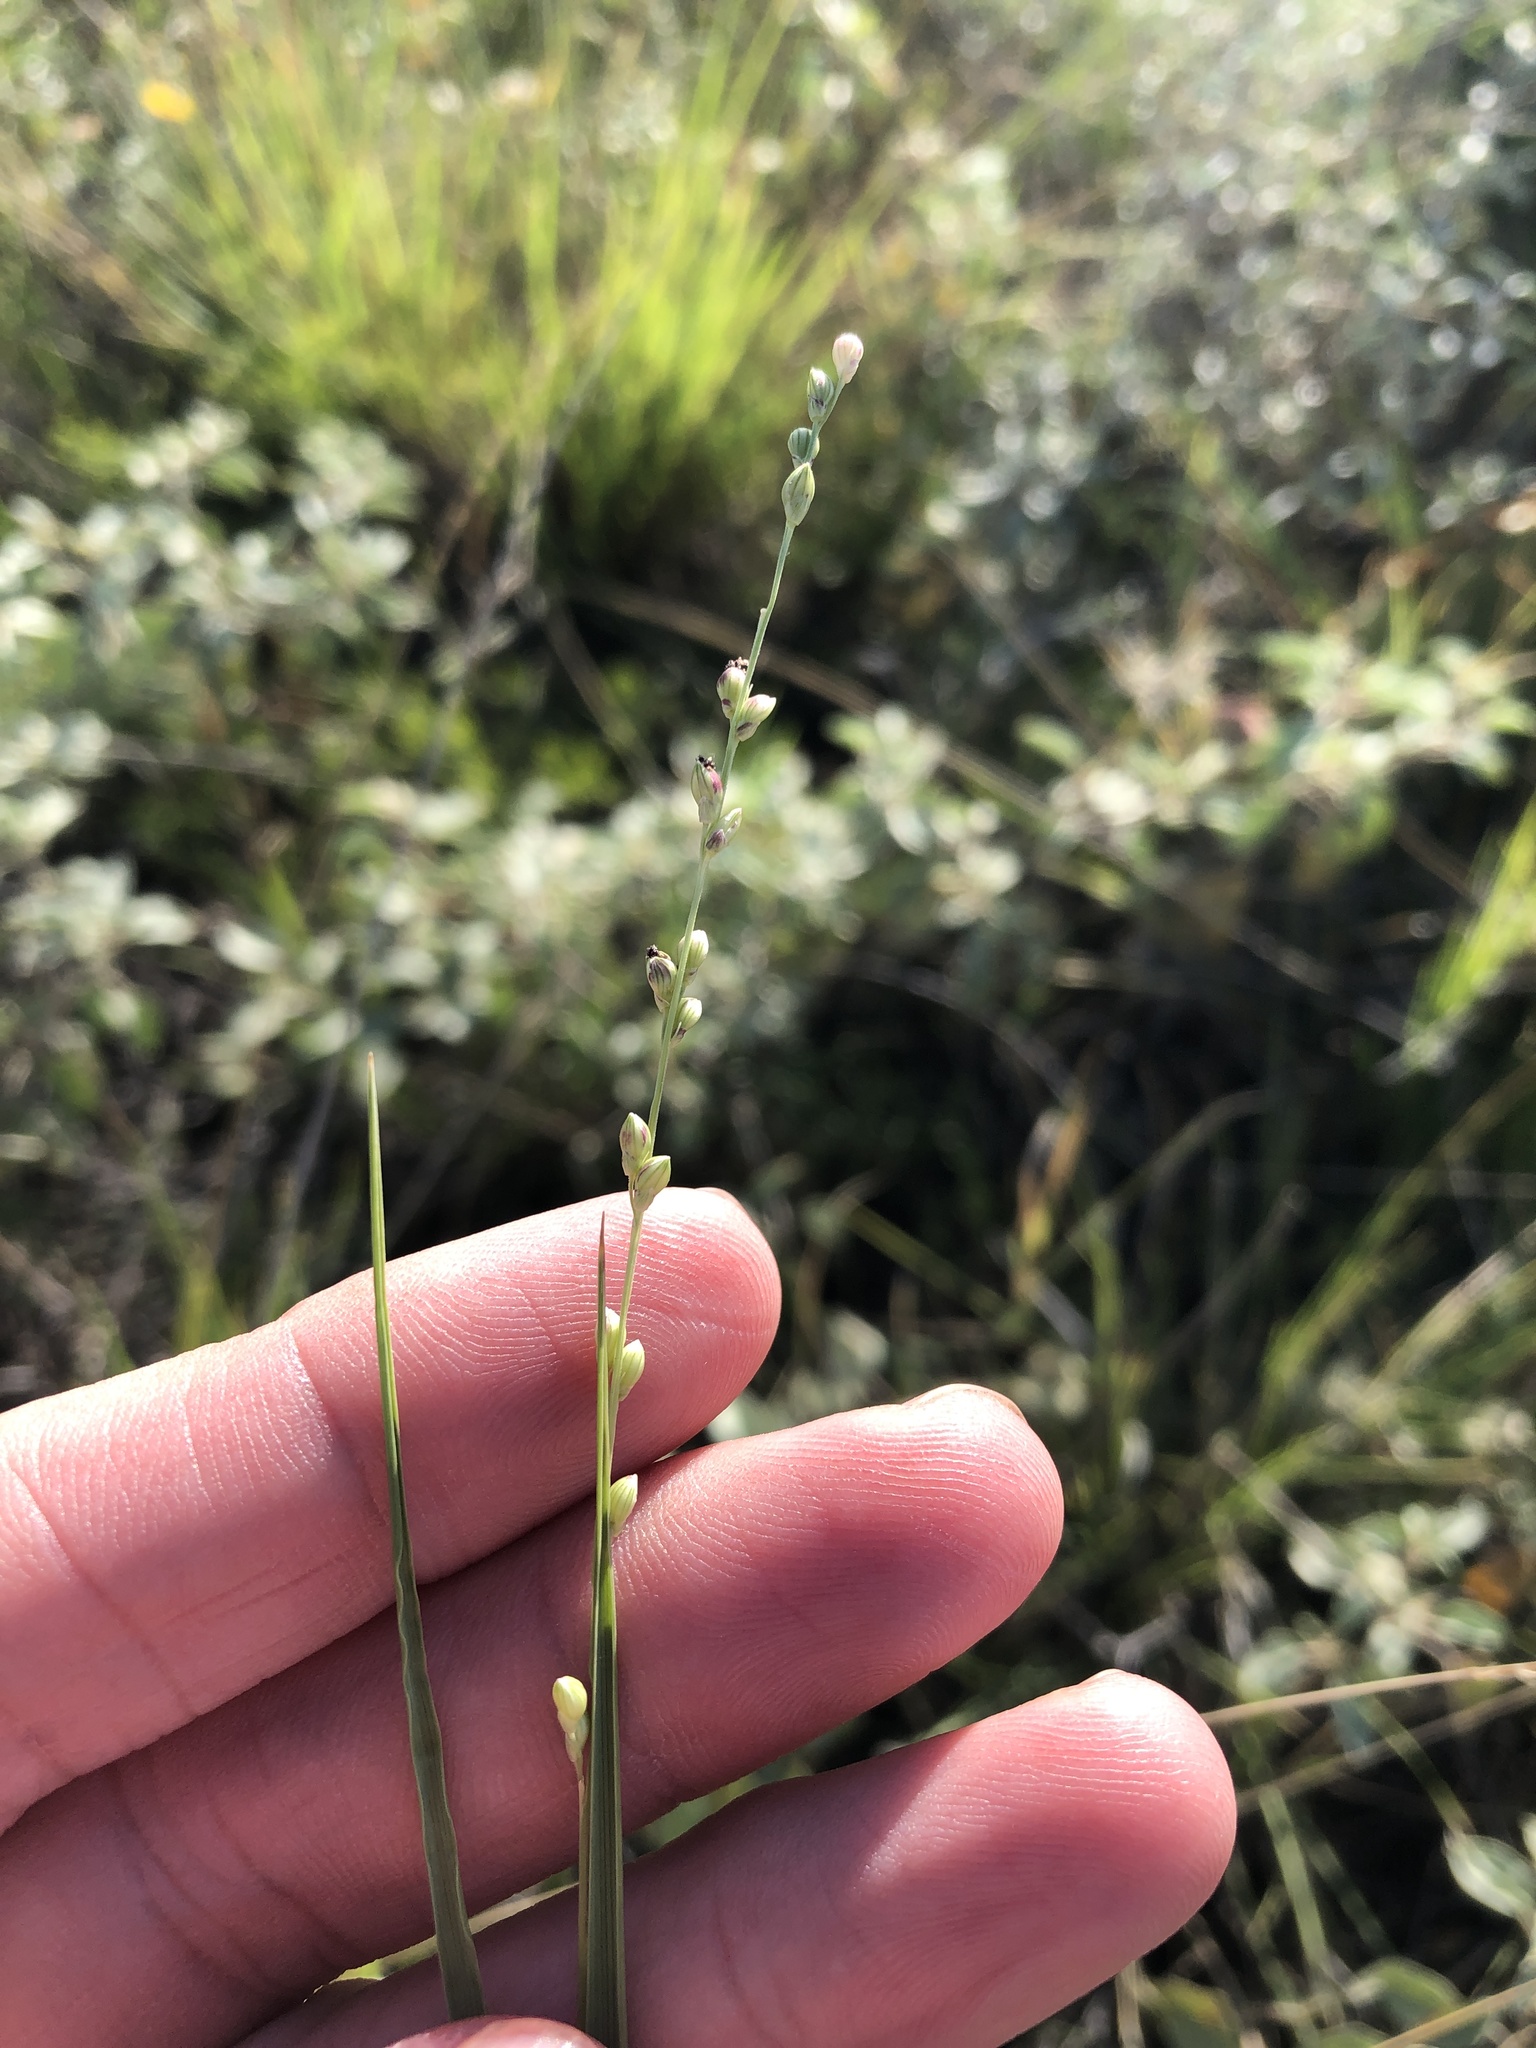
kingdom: Plantae
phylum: Tracheophyta
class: Liliopsida
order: Poales
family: Poaceae
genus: Setaria
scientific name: Setaria reverchonii
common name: Reverchon's bristle grass
